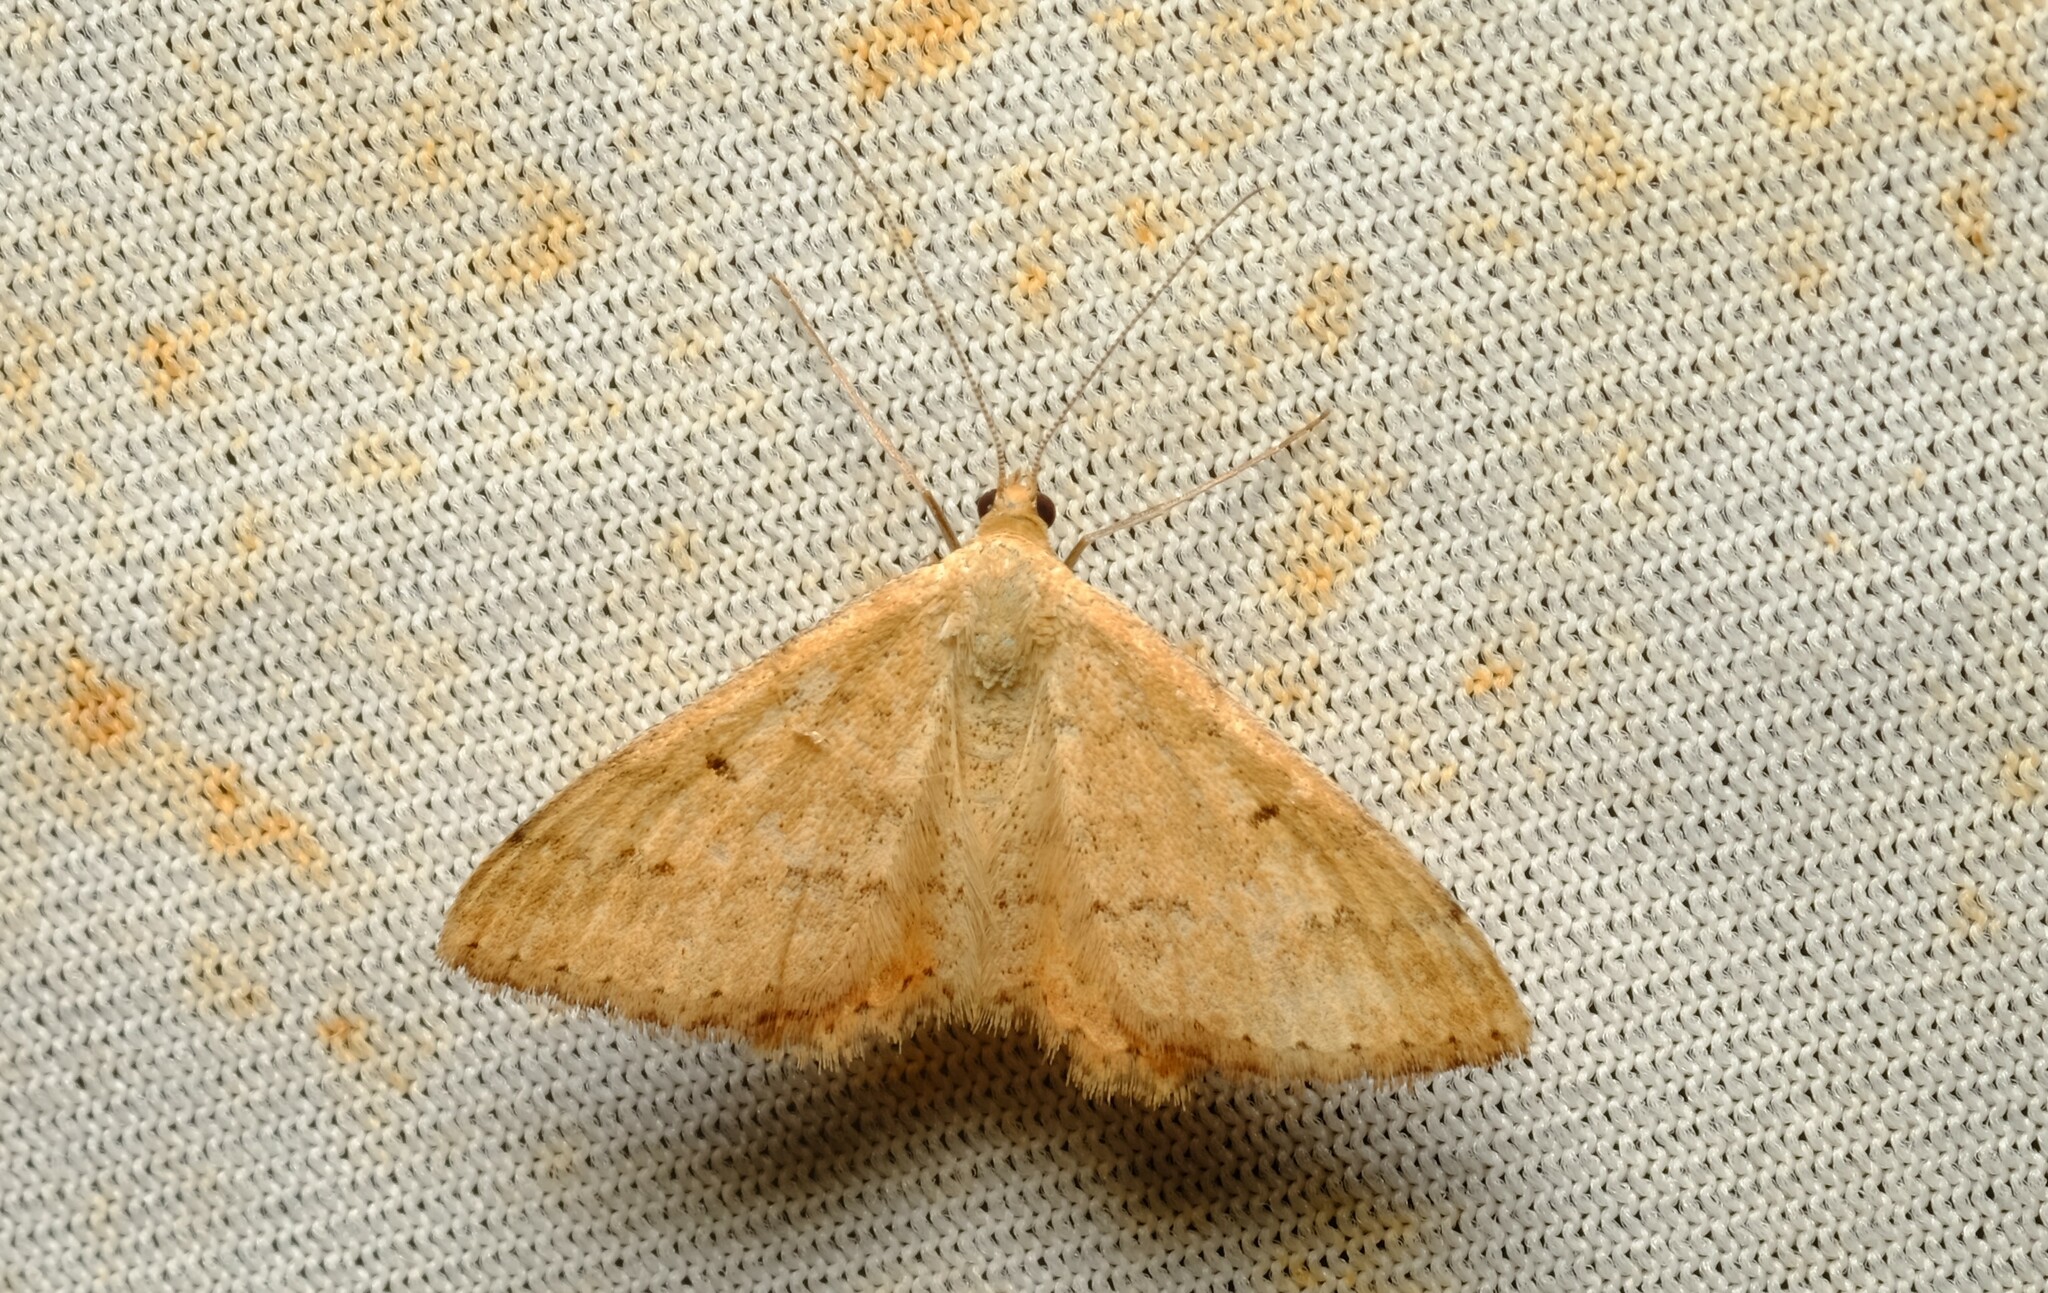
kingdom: Animalia
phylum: Arthropoda
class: Insecta
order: Lepidoptera
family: Geometridae
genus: Scopula
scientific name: Scopula rubraria
